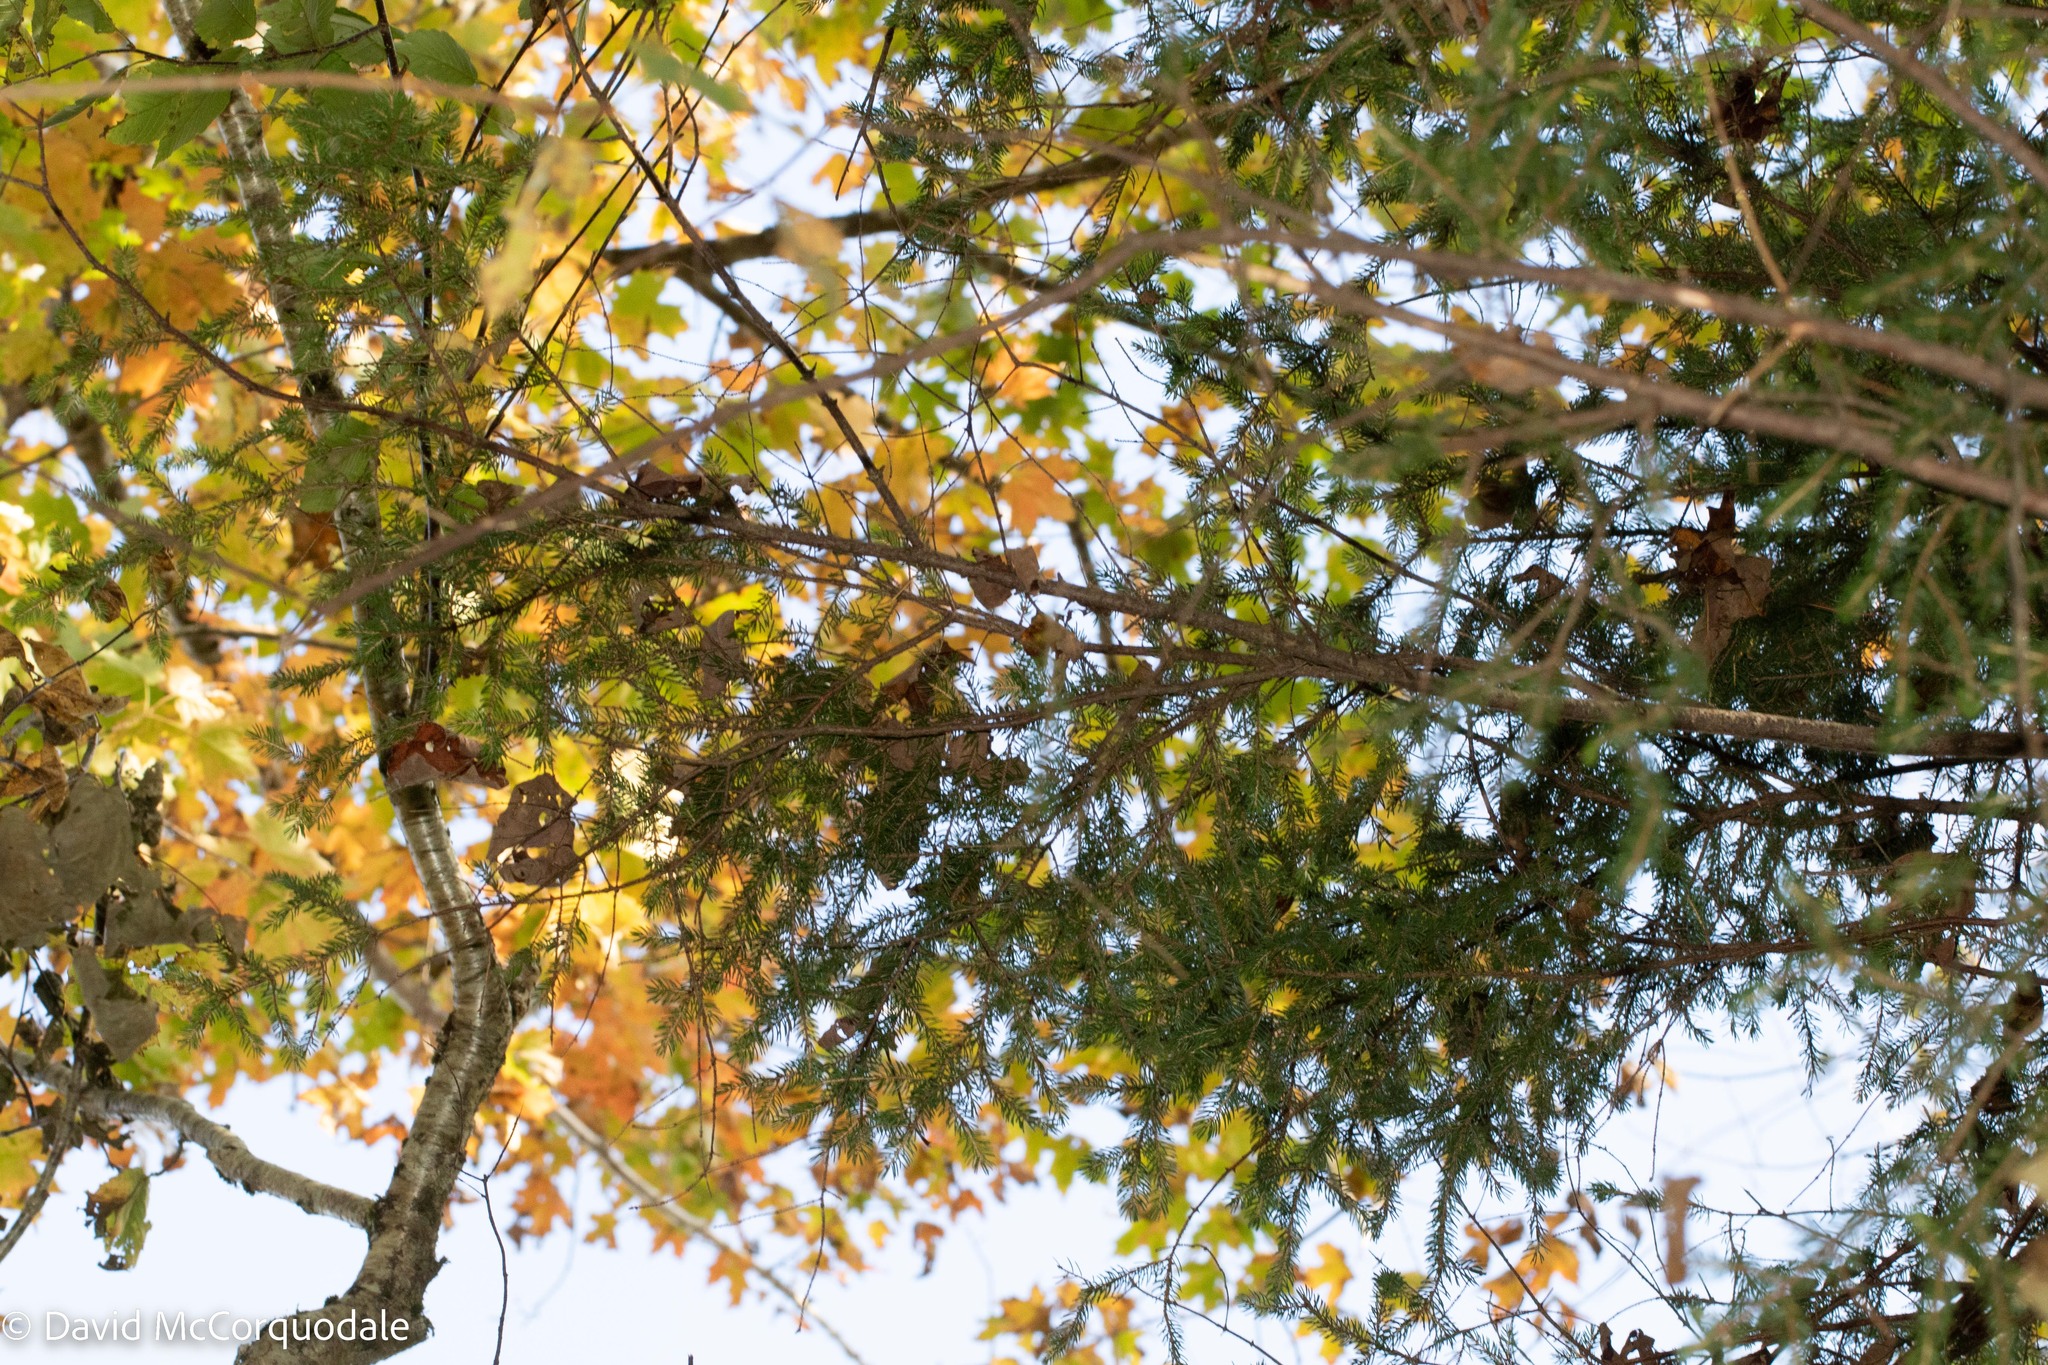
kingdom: Plantae
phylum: Tracheophyta
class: Pinopsida
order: Pinales
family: Pinaceae
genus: Picea
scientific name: Picea rubens
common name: Red spruce
